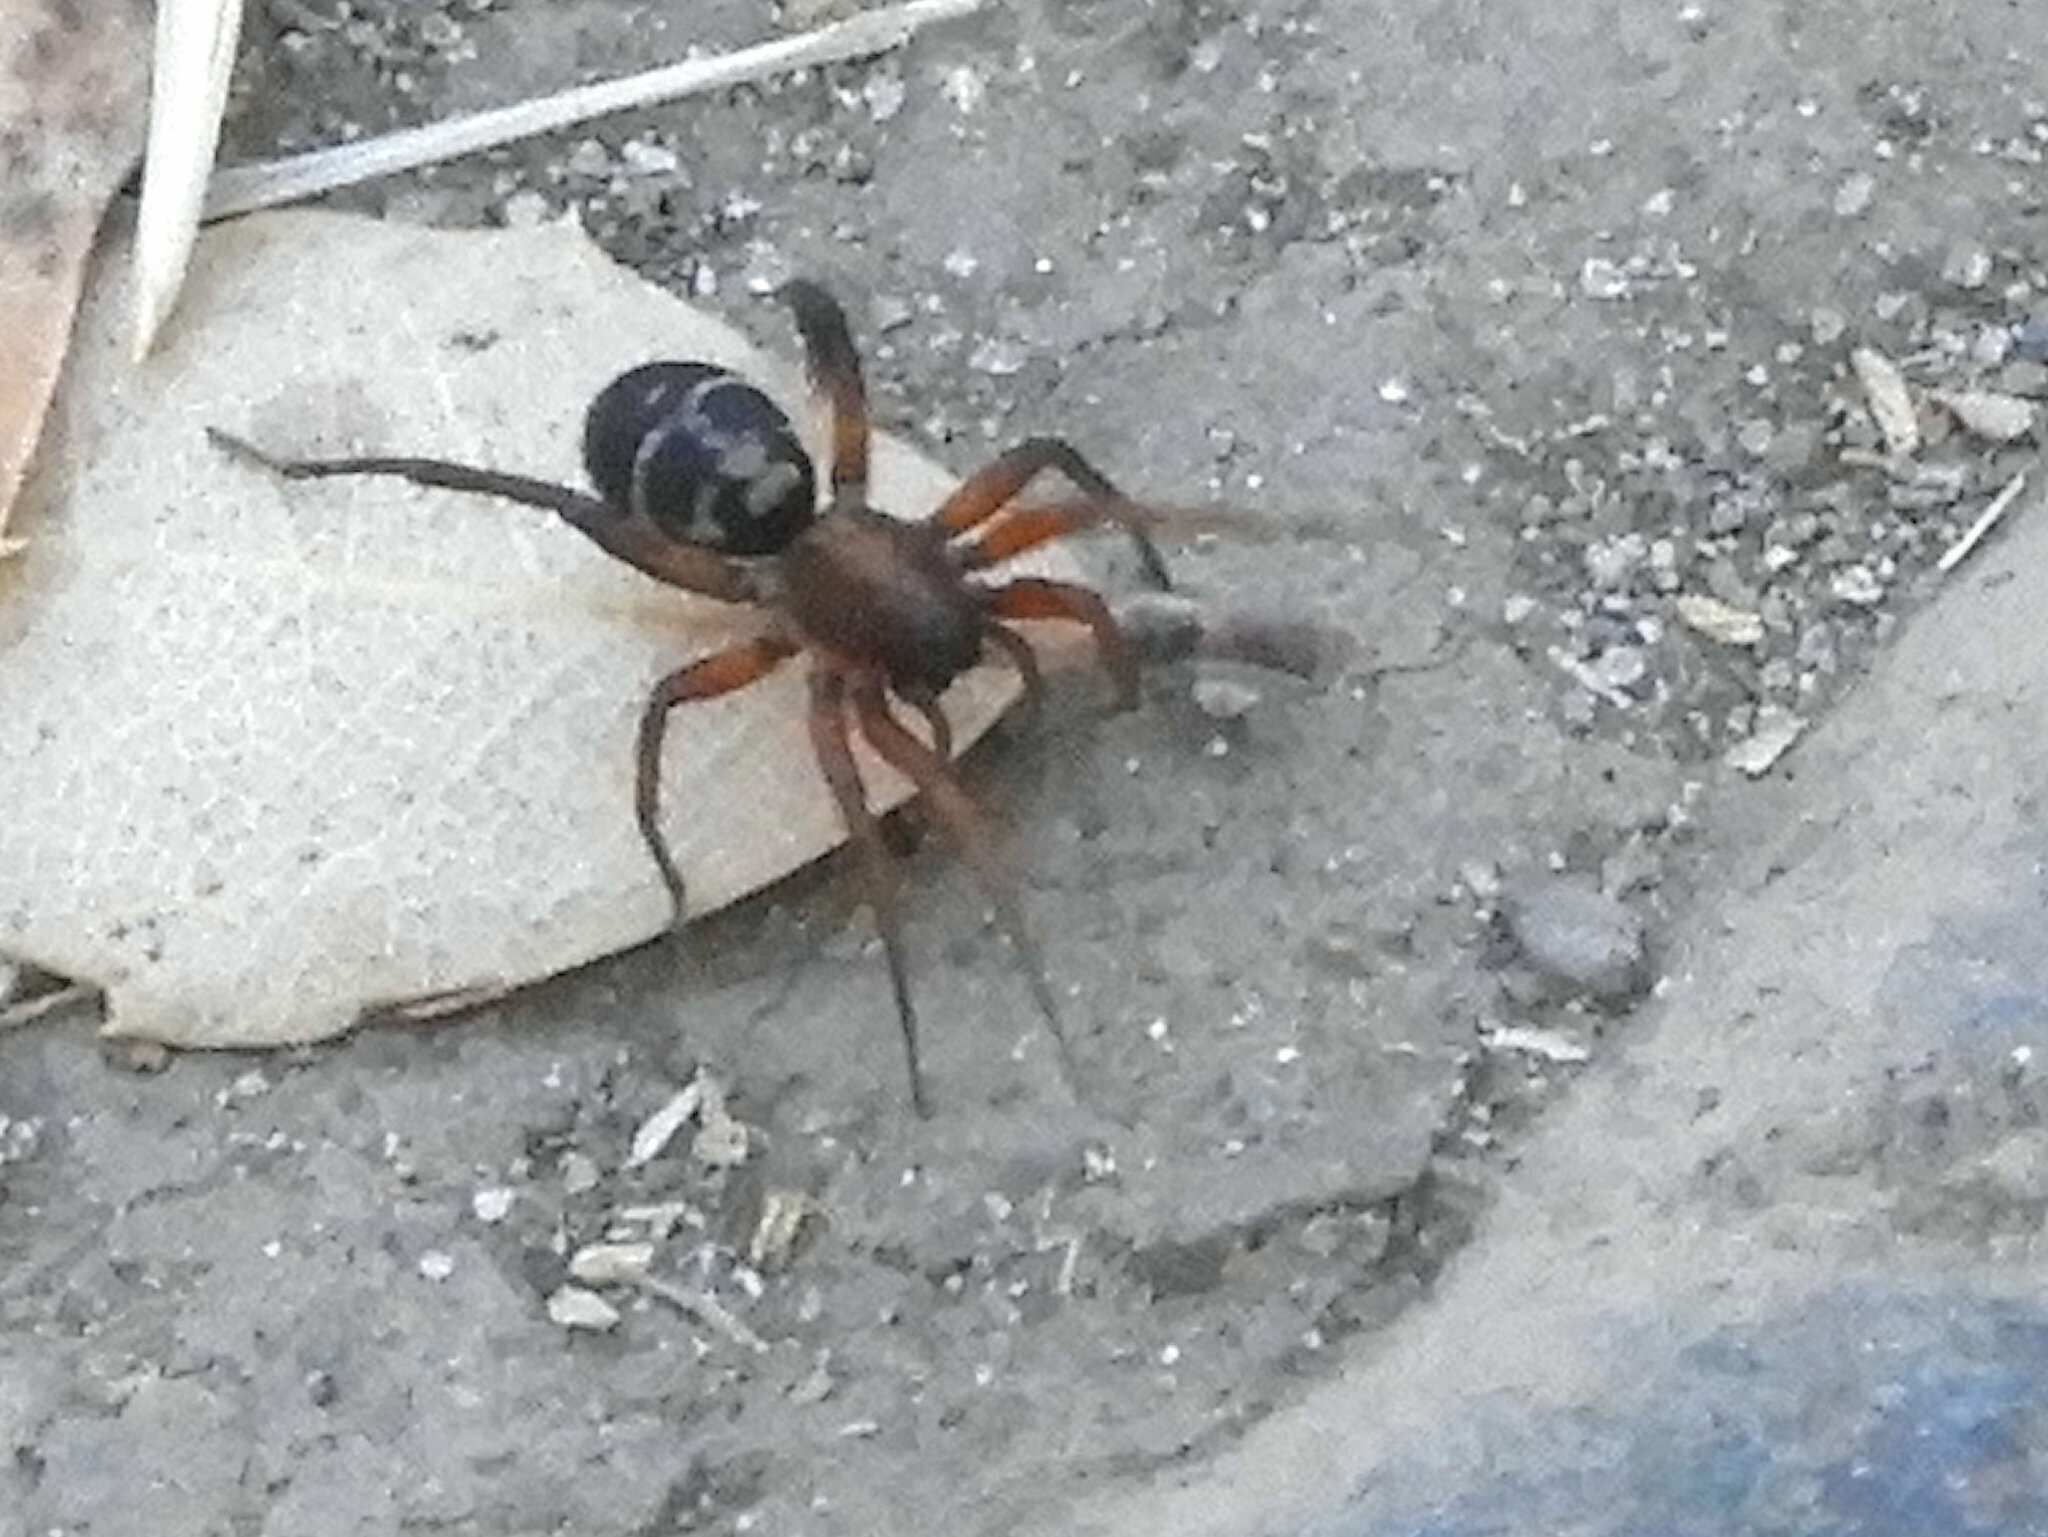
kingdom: Animalia
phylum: Arthropoda
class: Arachnida
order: Araneae
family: Corinnidae
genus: Castianeira
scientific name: Castianeira thalia
